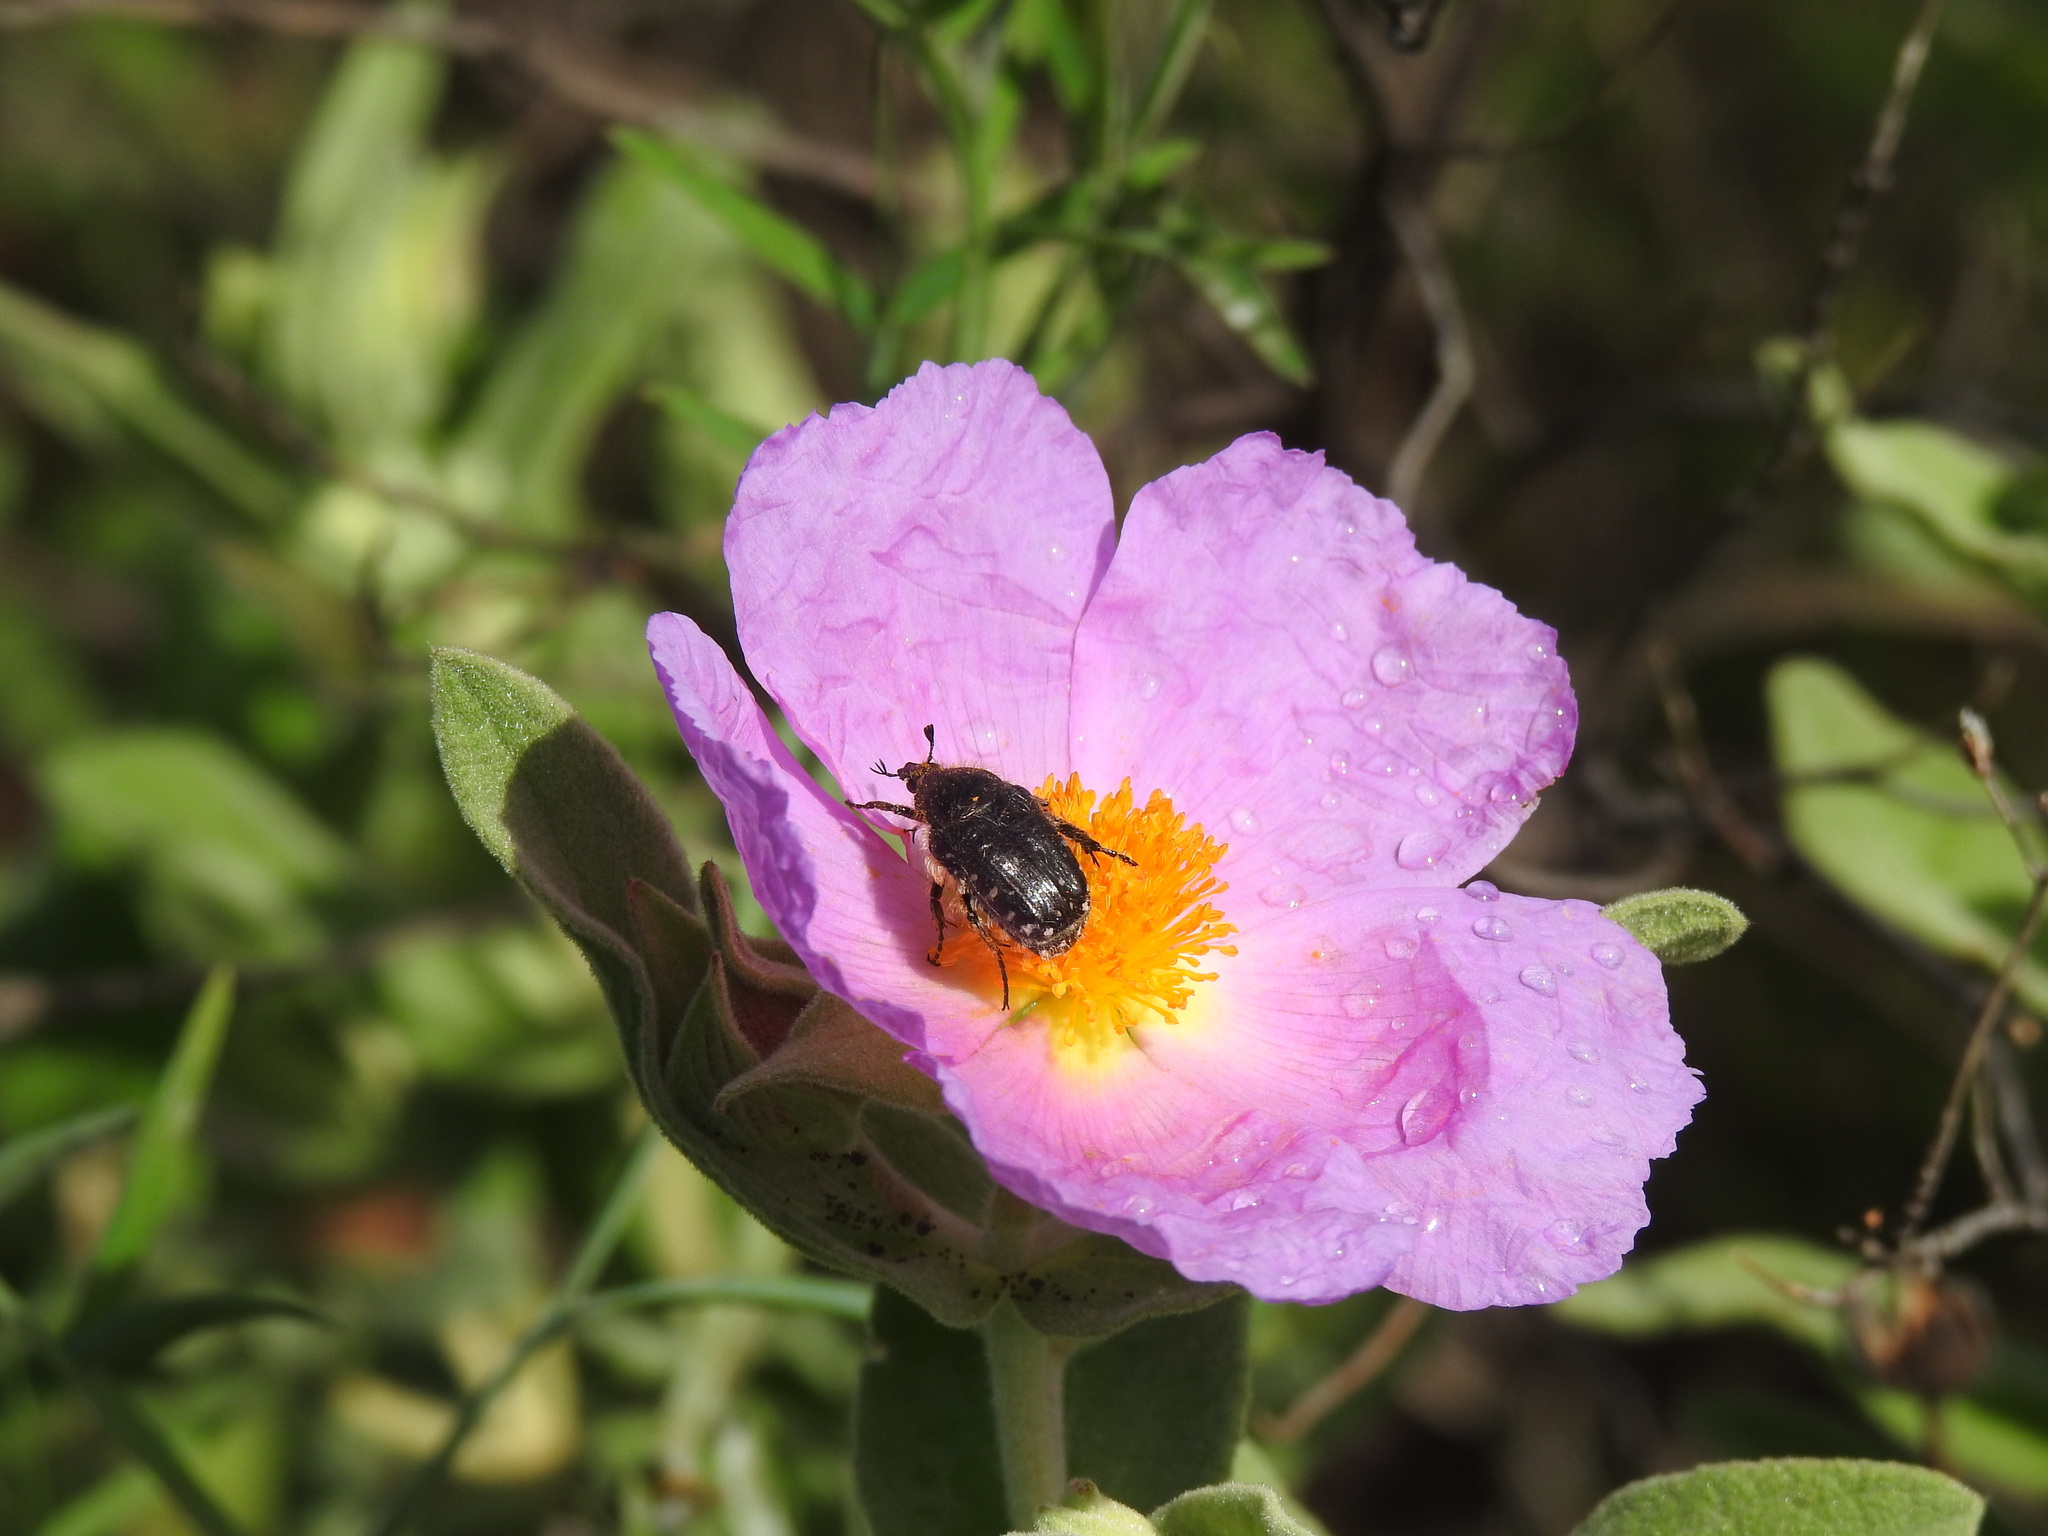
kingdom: Animalia
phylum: Arthropoda
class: Insecta
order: Coleoptera
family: Scarabaeidae
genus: Oxythyrea
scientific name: Oxythyrea funesta
